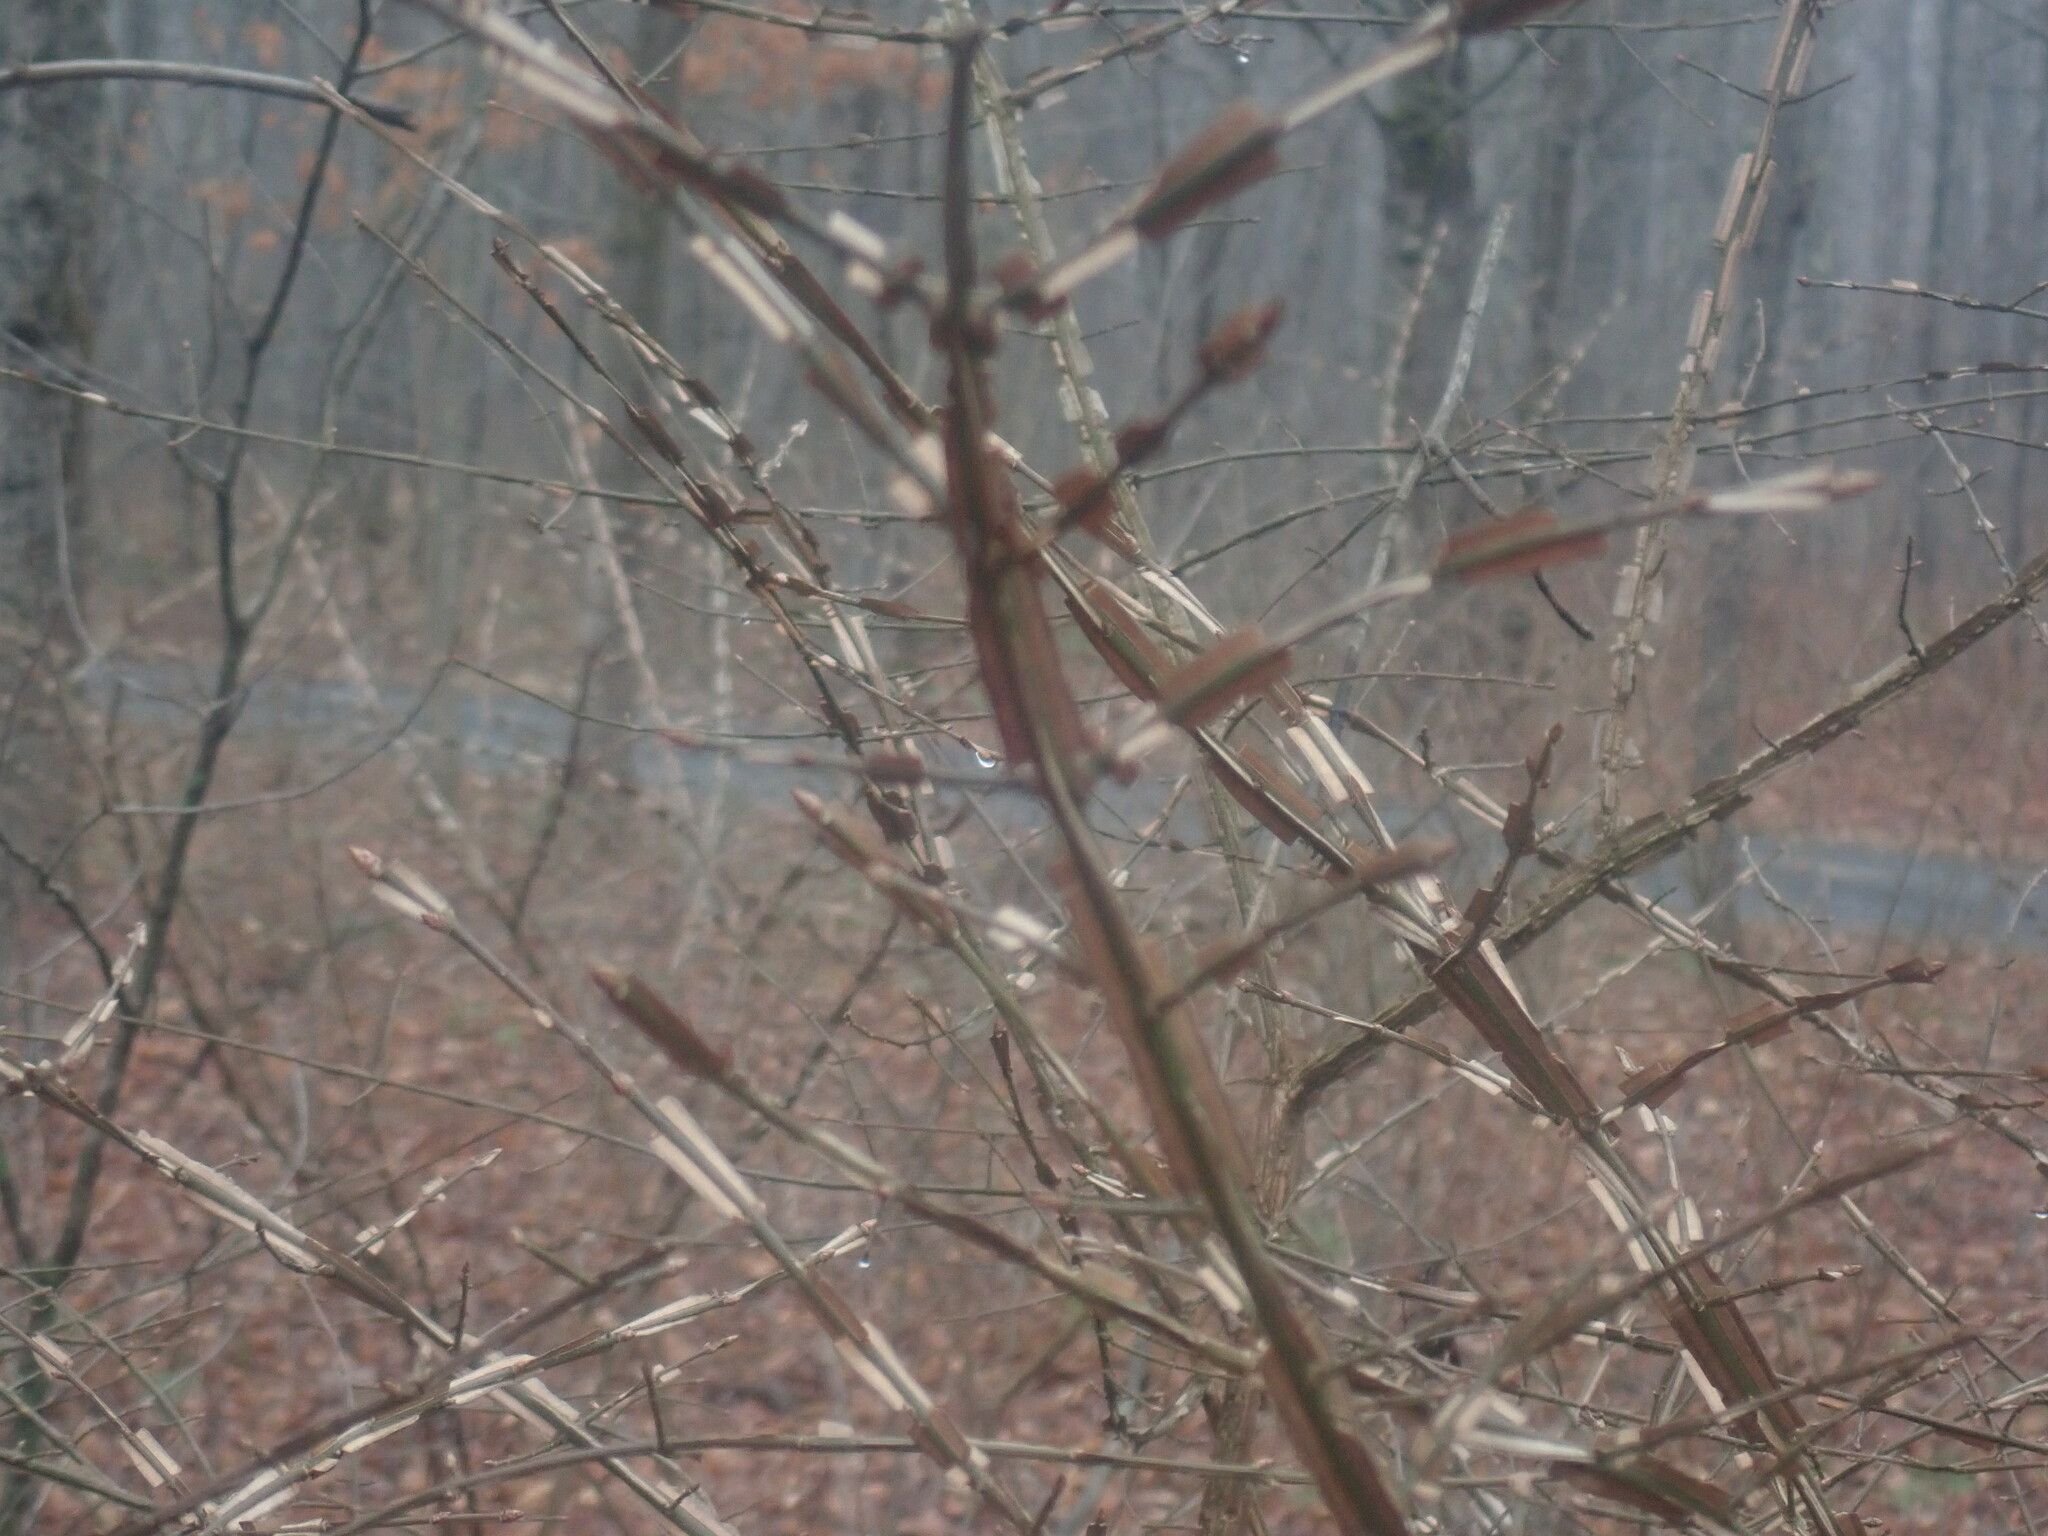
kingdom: Plantae
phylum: Tracheophyta
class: Magnoliopsida
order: Celastrales
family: Celastraceae
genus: Euonymus
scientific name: Euonymus alatus
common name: Winged euonymus
